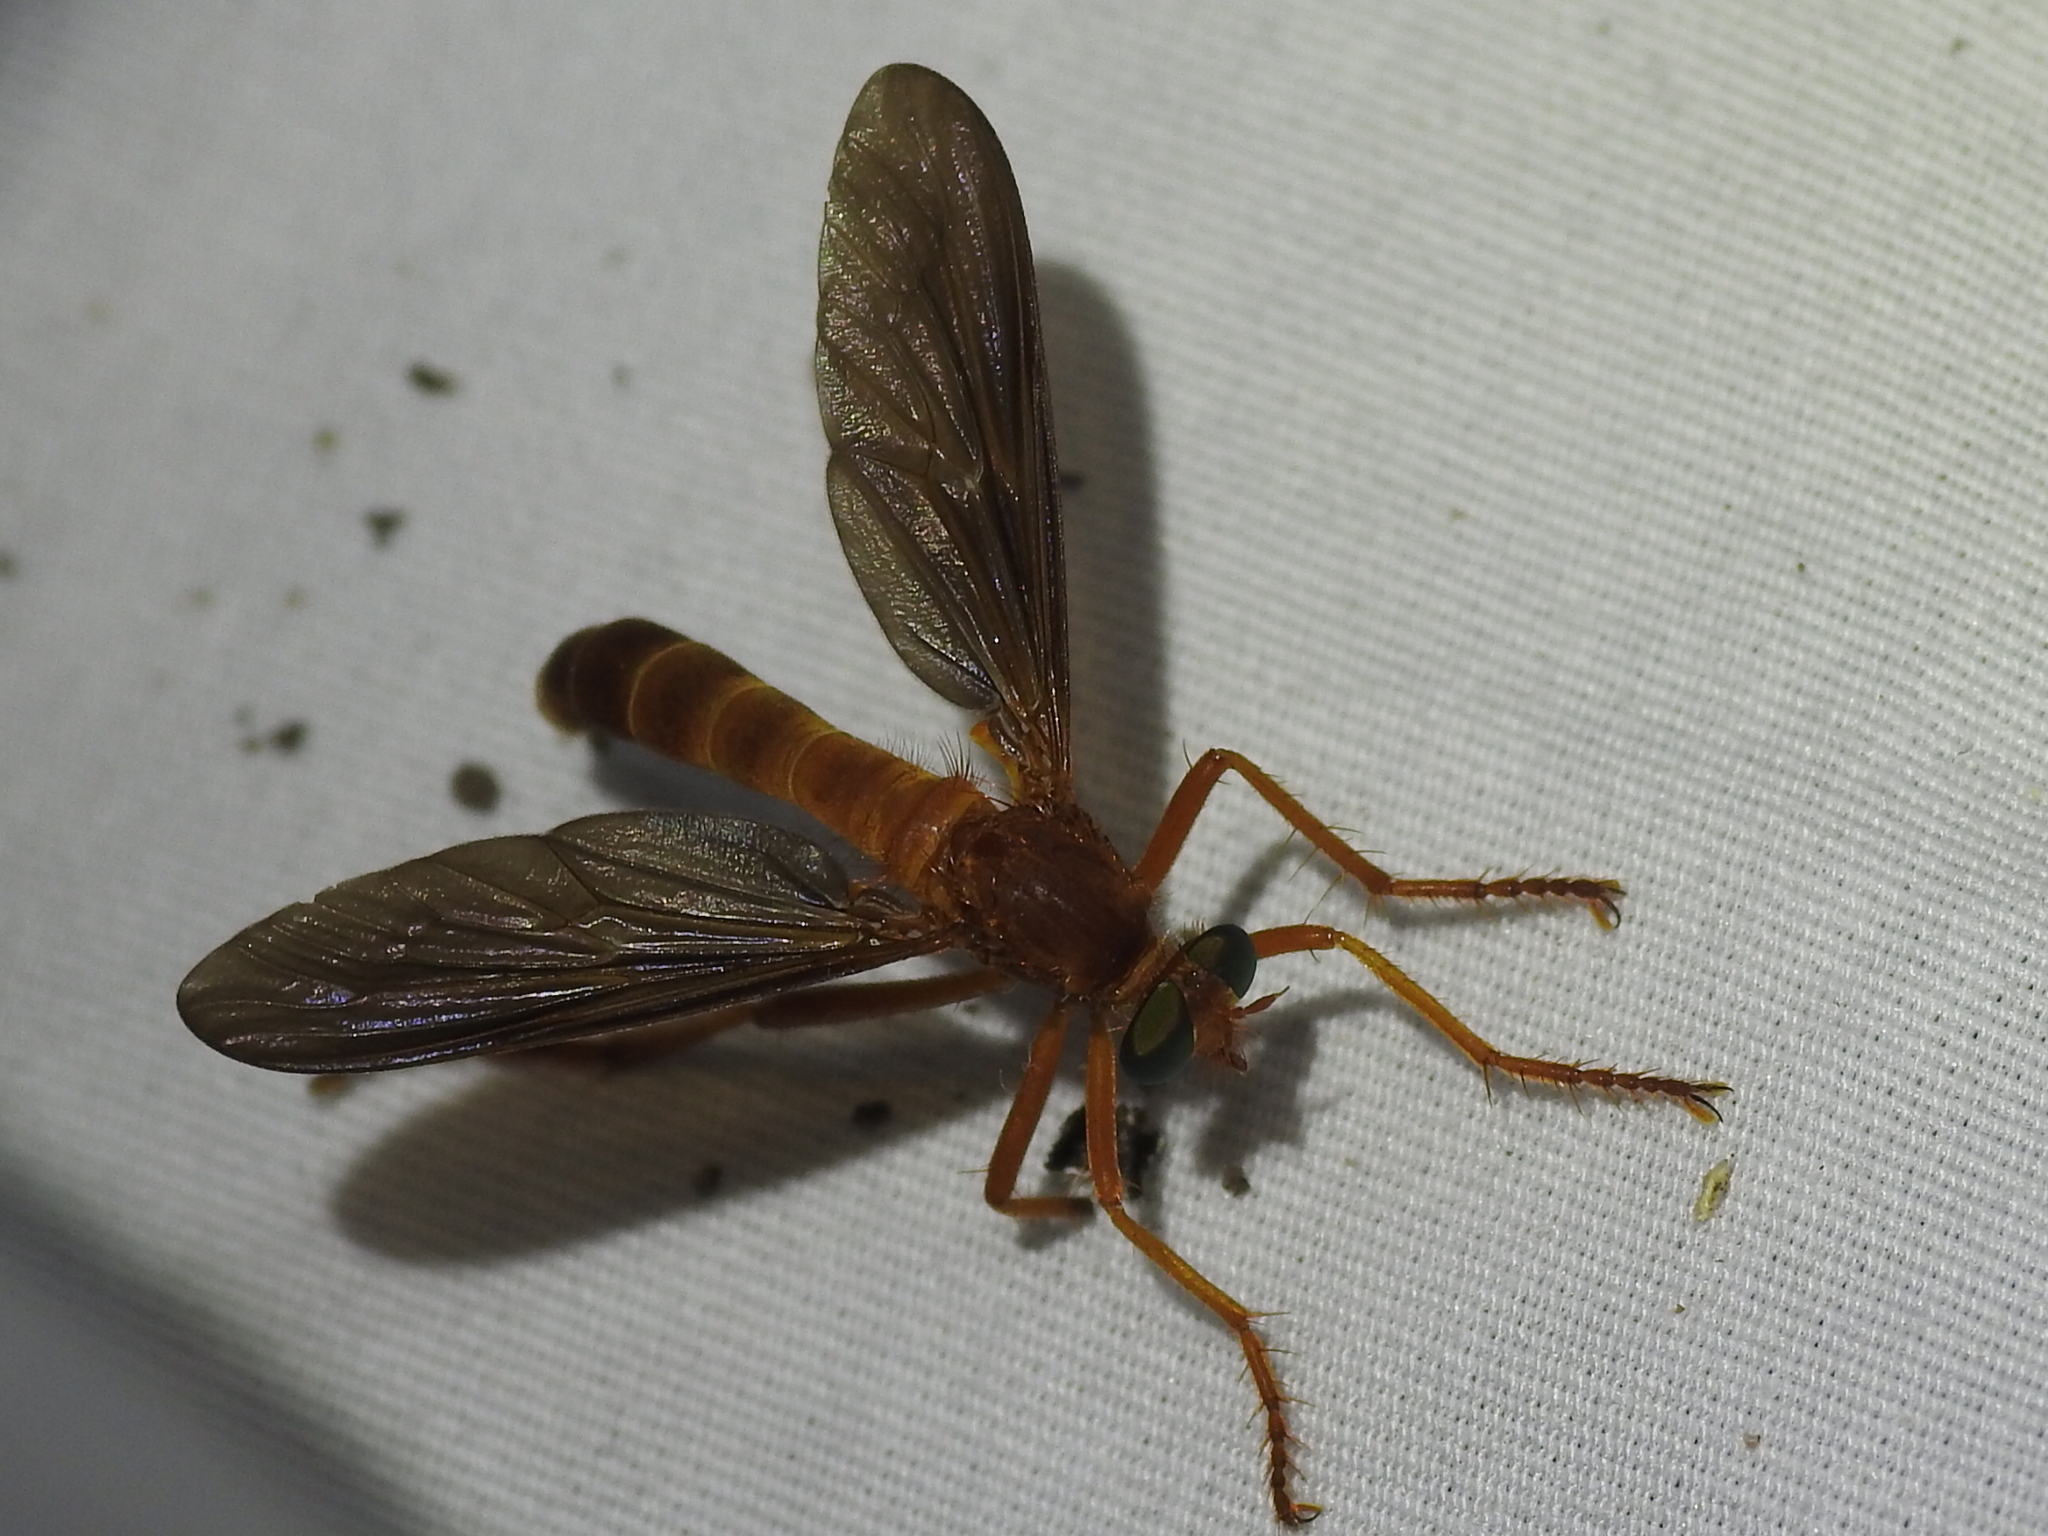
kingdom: Animalia
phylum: Arthropoda
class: Insecta
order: Diptera
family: Asilidae
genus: Plesiomma
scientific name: Plesiomma unicolor
